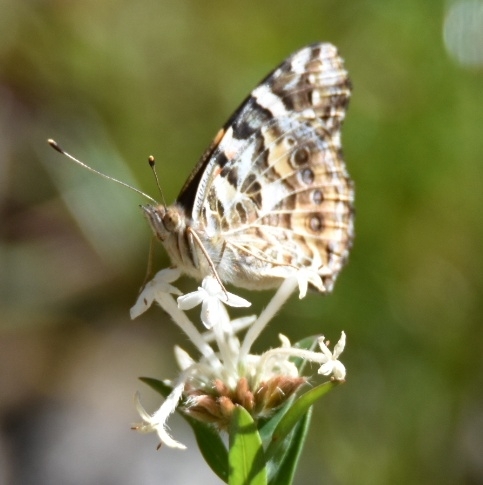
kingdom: Animalia
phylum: Arthropoda
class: Insecta
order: Lepidoptera
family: Nymphalidae
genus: Vanessa
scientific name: Vanessa kershawi
